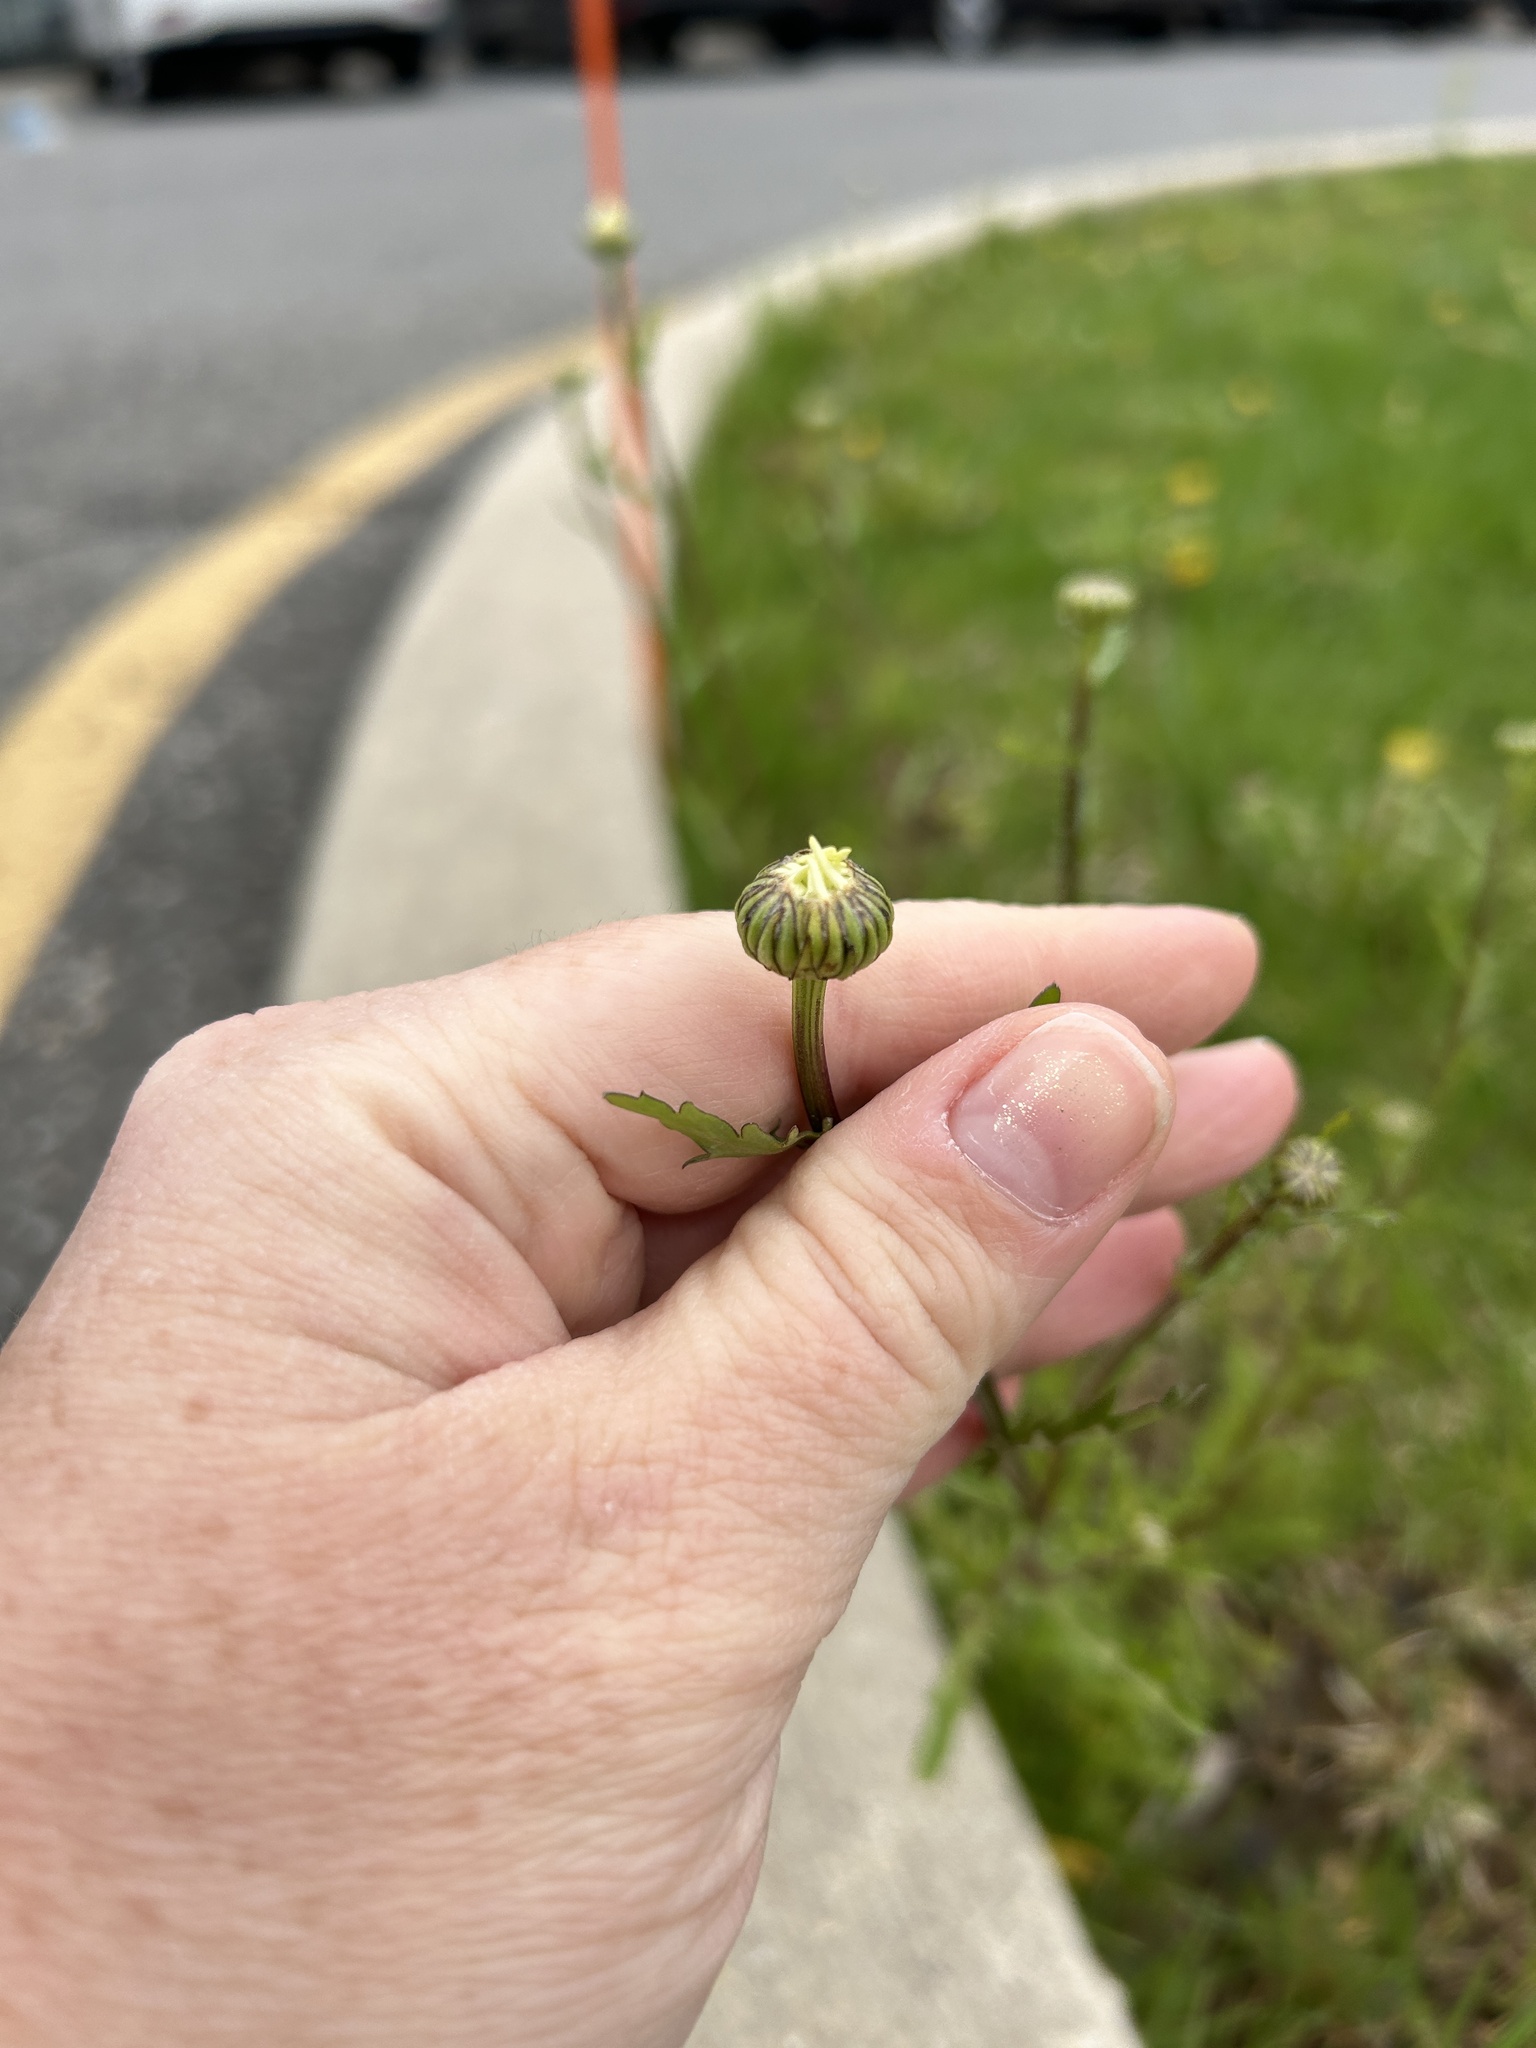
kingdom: Plantae
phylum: Tracheophyta
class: Magnoliopsida
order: Asterales
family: Asteraceae
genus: Leucanthemum
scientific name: Leucanthemum vulgare
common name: Oxeye daisy
